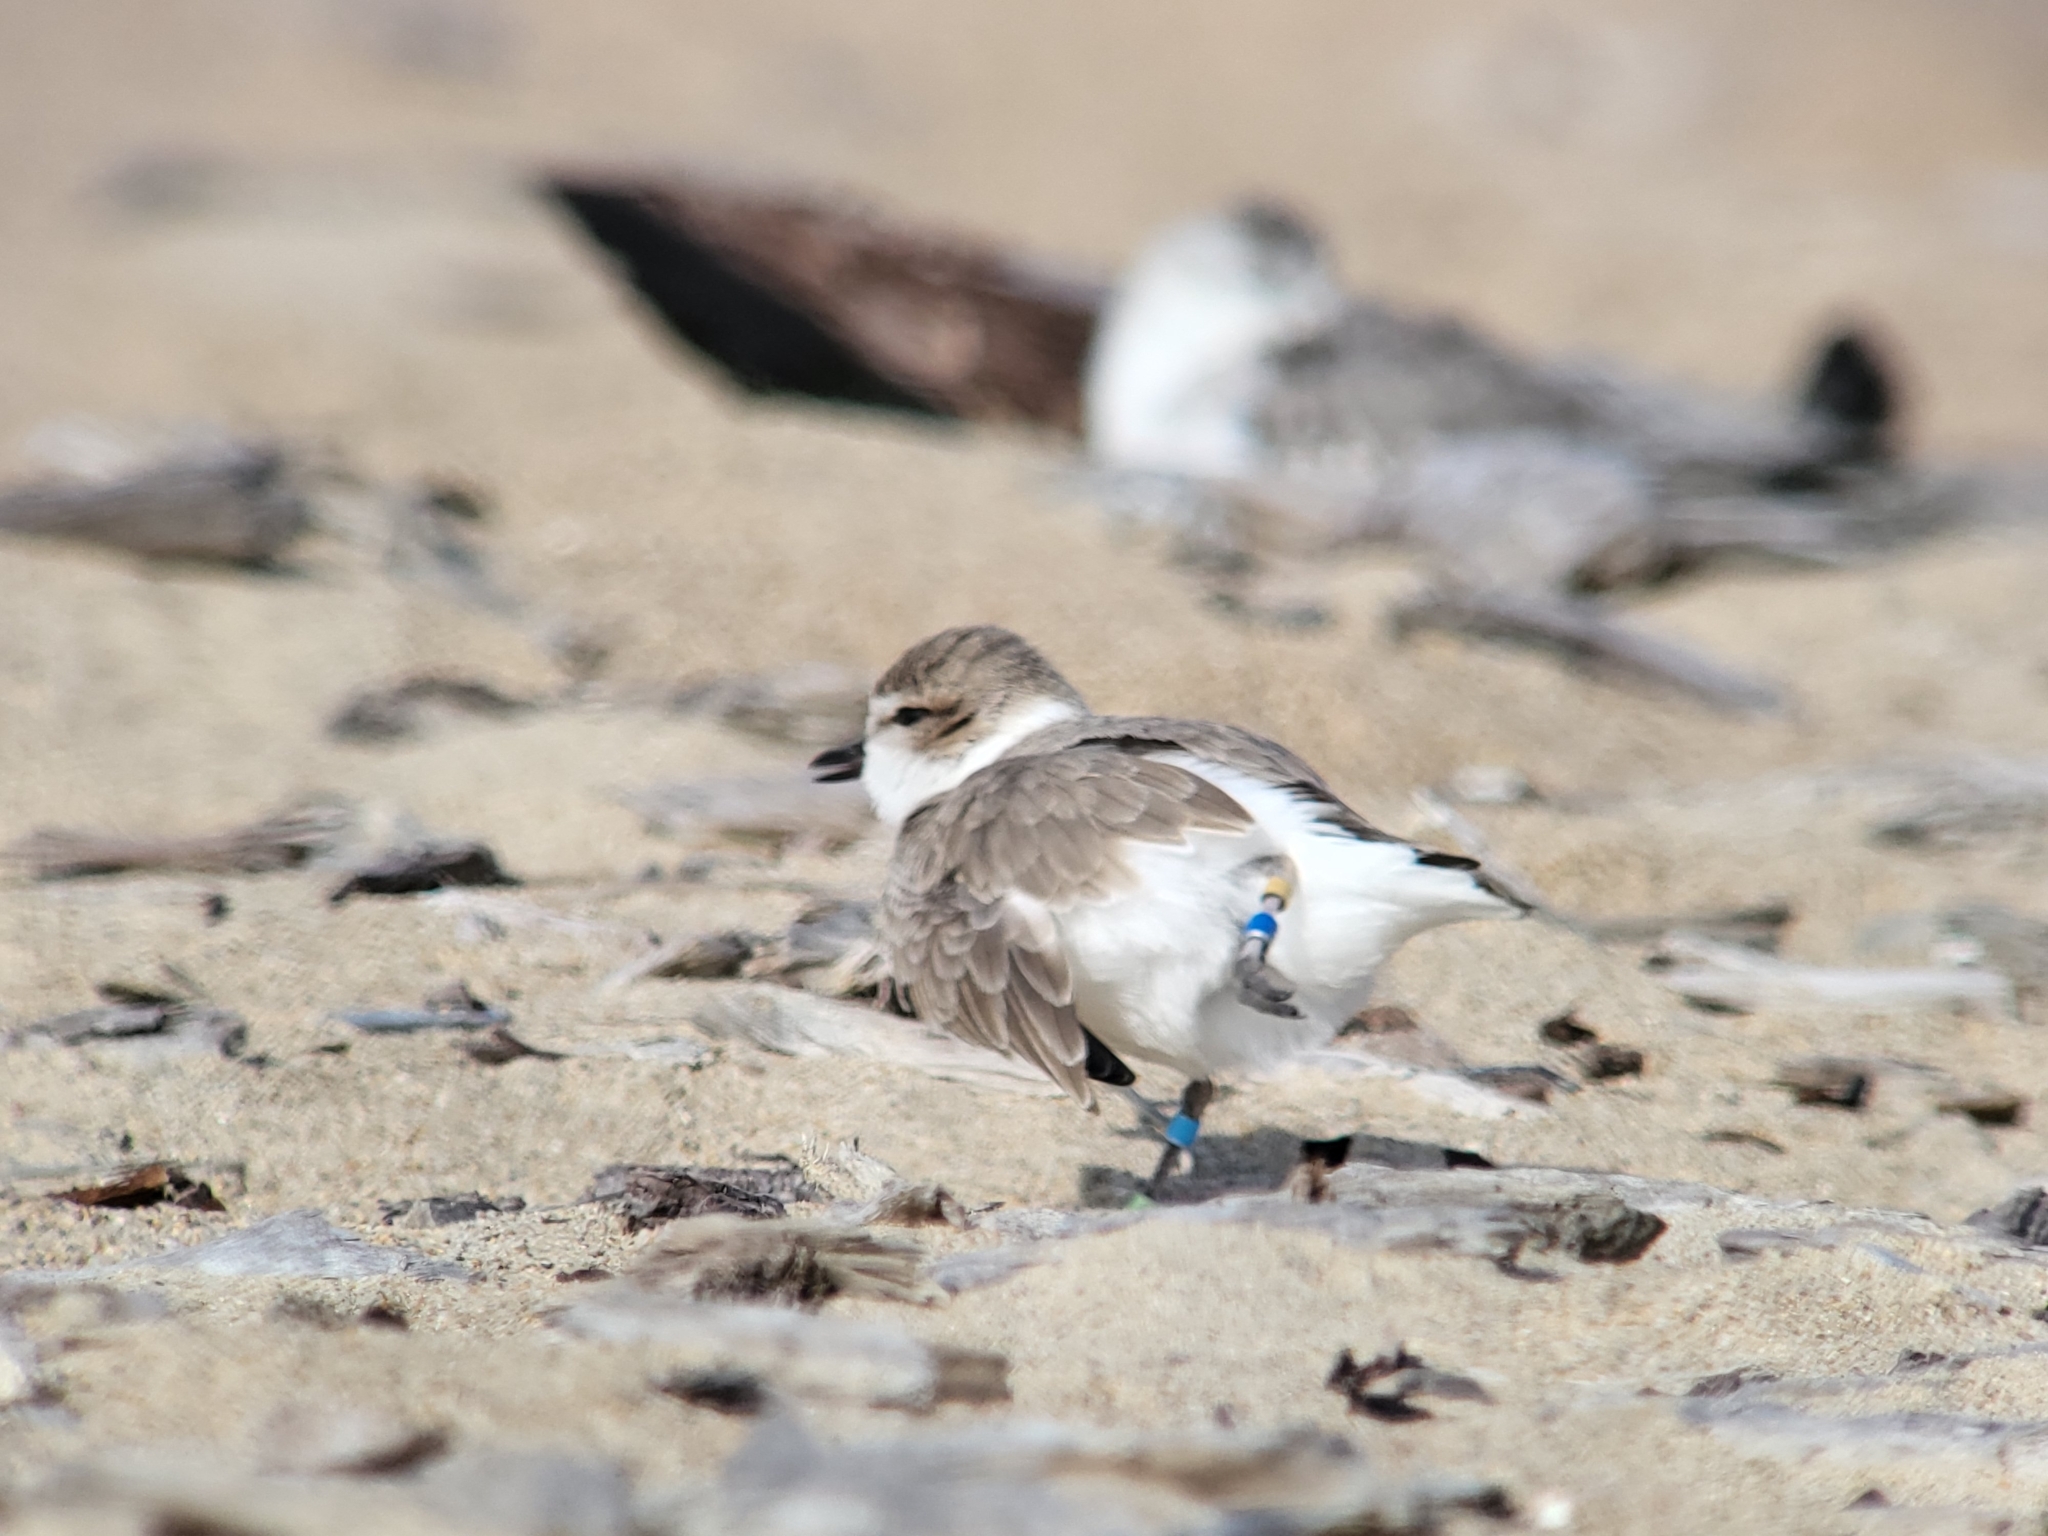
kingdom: Animalia
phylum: Chordata
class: Aves
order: Charadriiformes
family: Charadriidae
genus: Anarhynchus
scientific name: Anarhynchus
